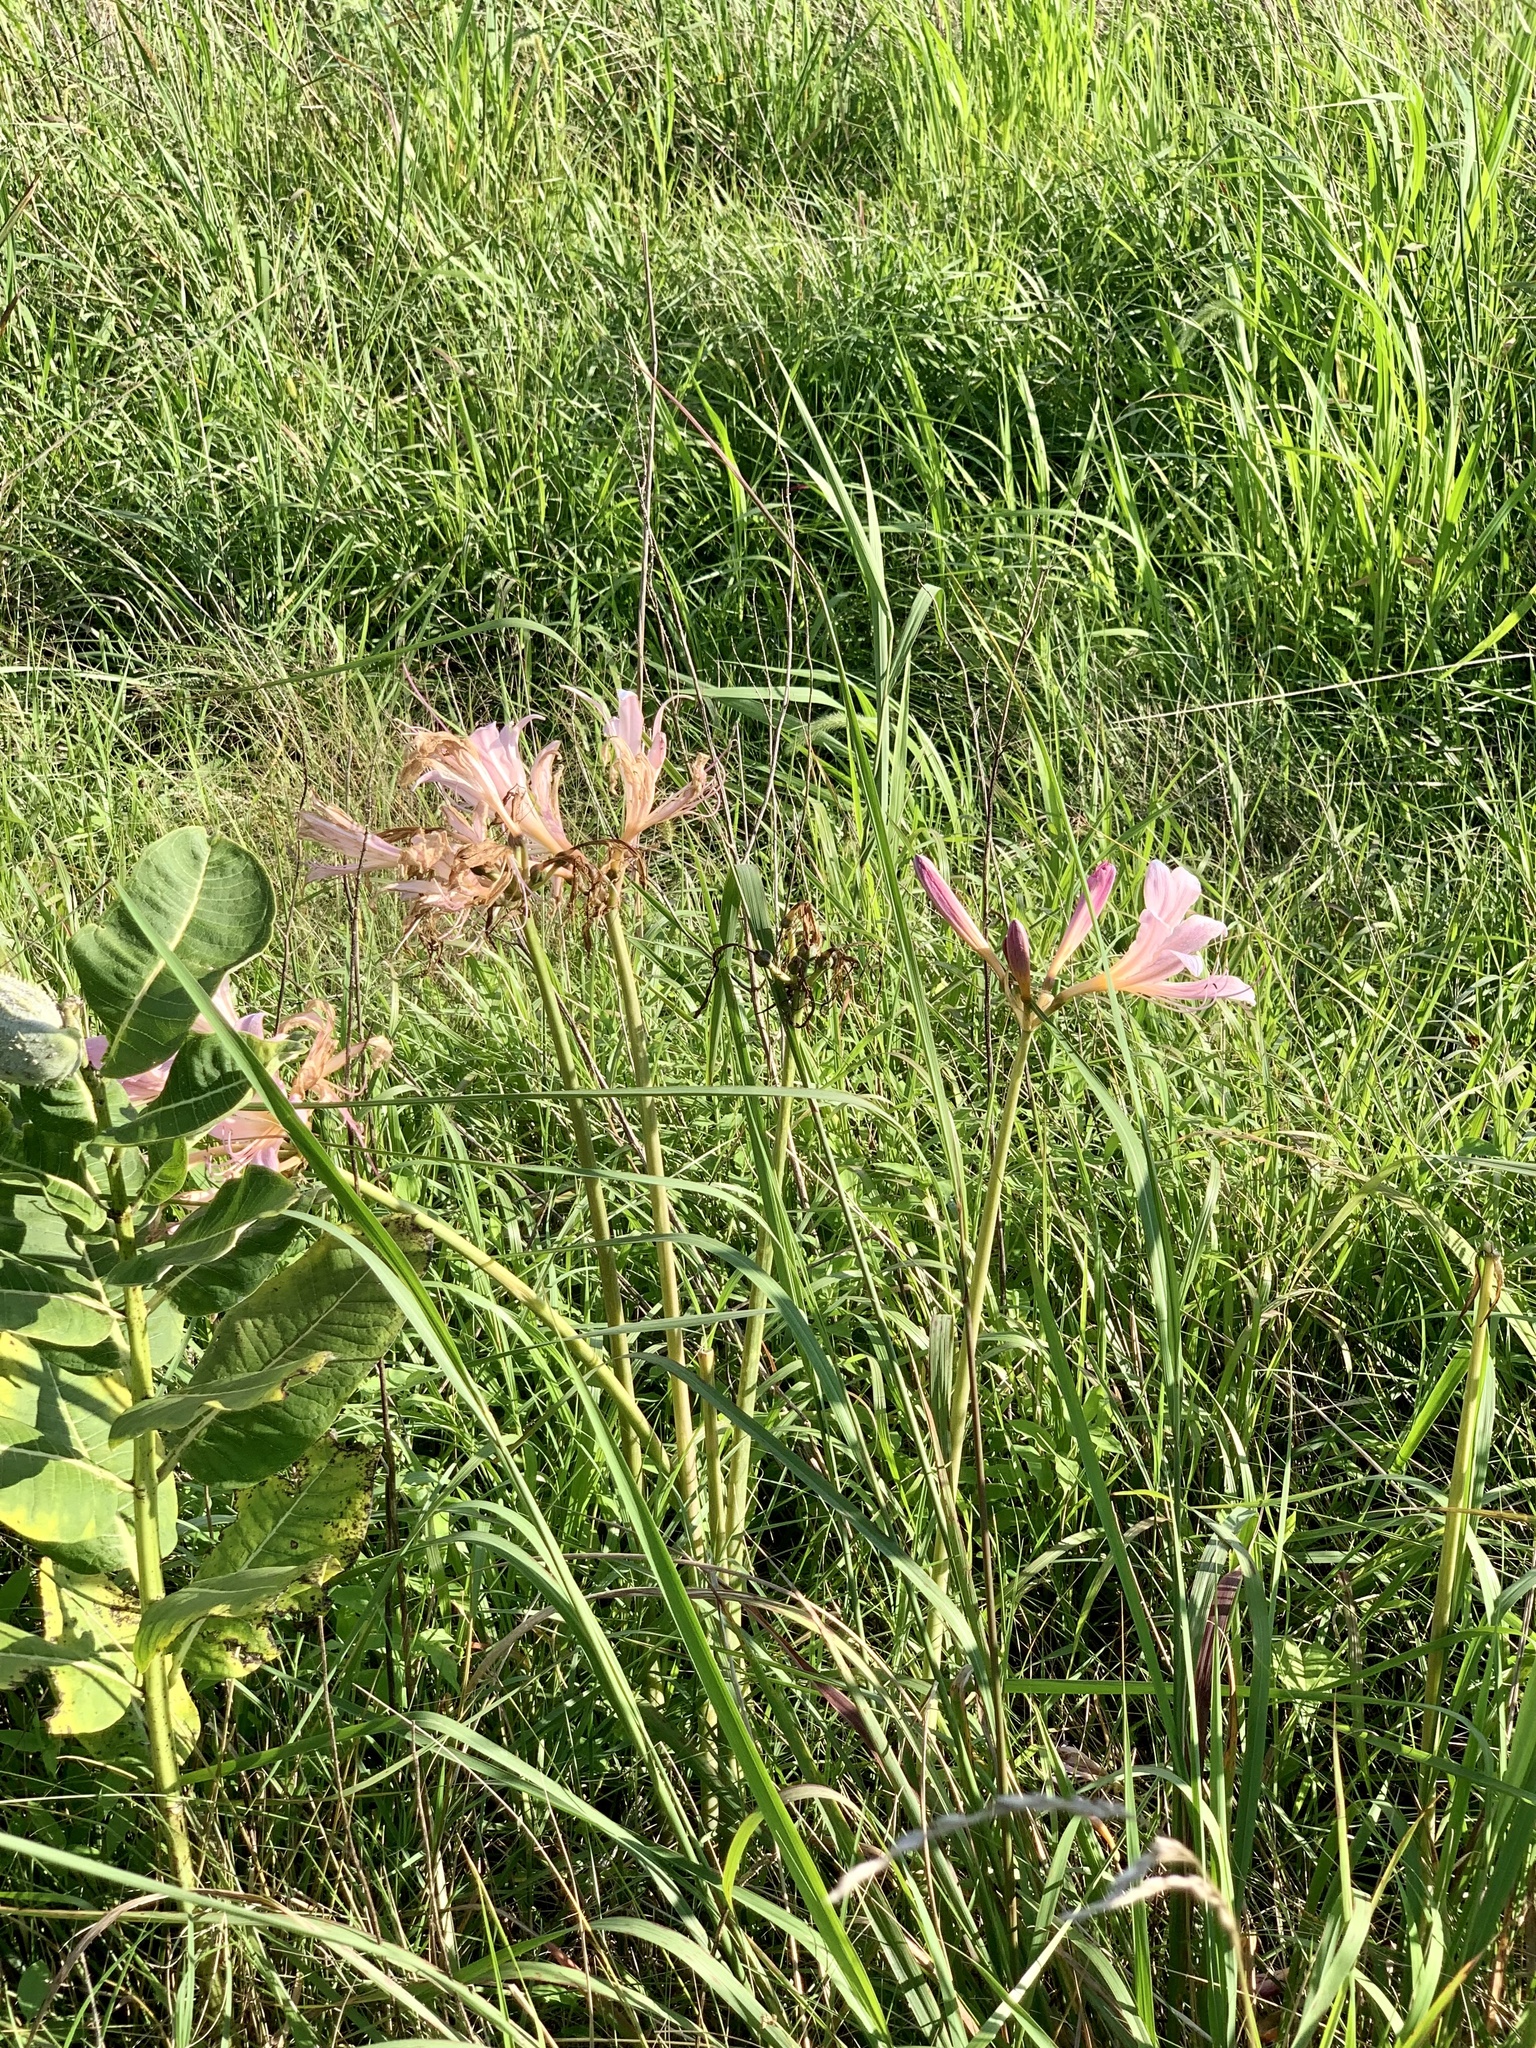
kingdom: Plantae
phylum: Tracheophyta
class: Liliopsida
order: Asparagales
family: Amaryllidaceae
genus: Lycoris
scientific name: Lycoris squamigera
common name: Magic-lily
